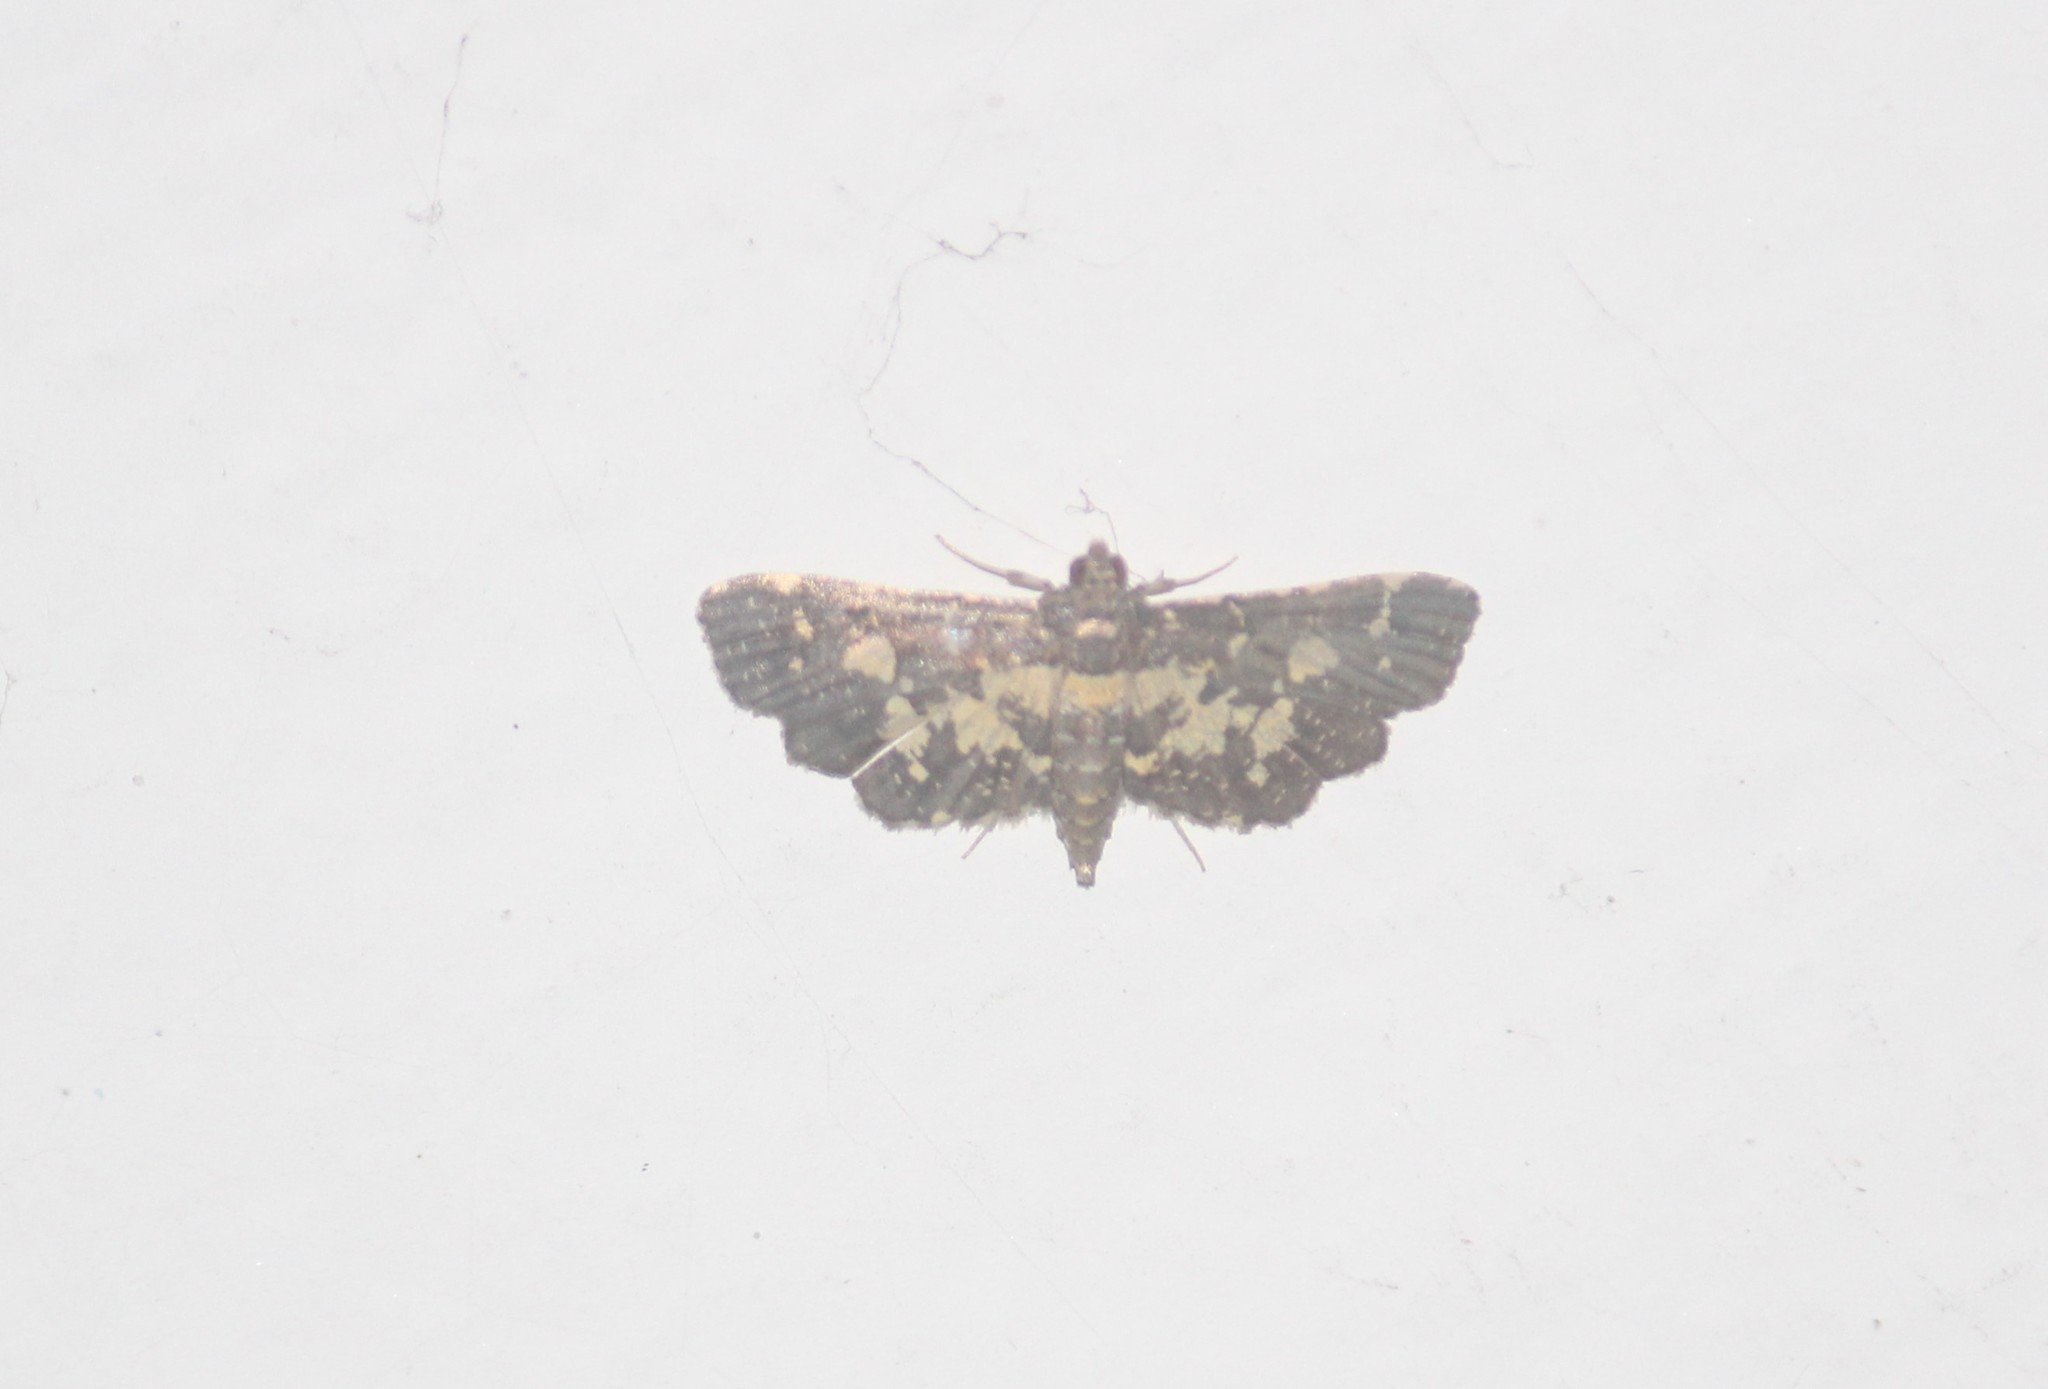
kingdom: Animalia
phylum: Arthropoda
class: Insecta
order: Lepidoptera
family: Crambidae
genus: Eurrhyparodes
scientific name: Eurrhyparodes bracteolalis
